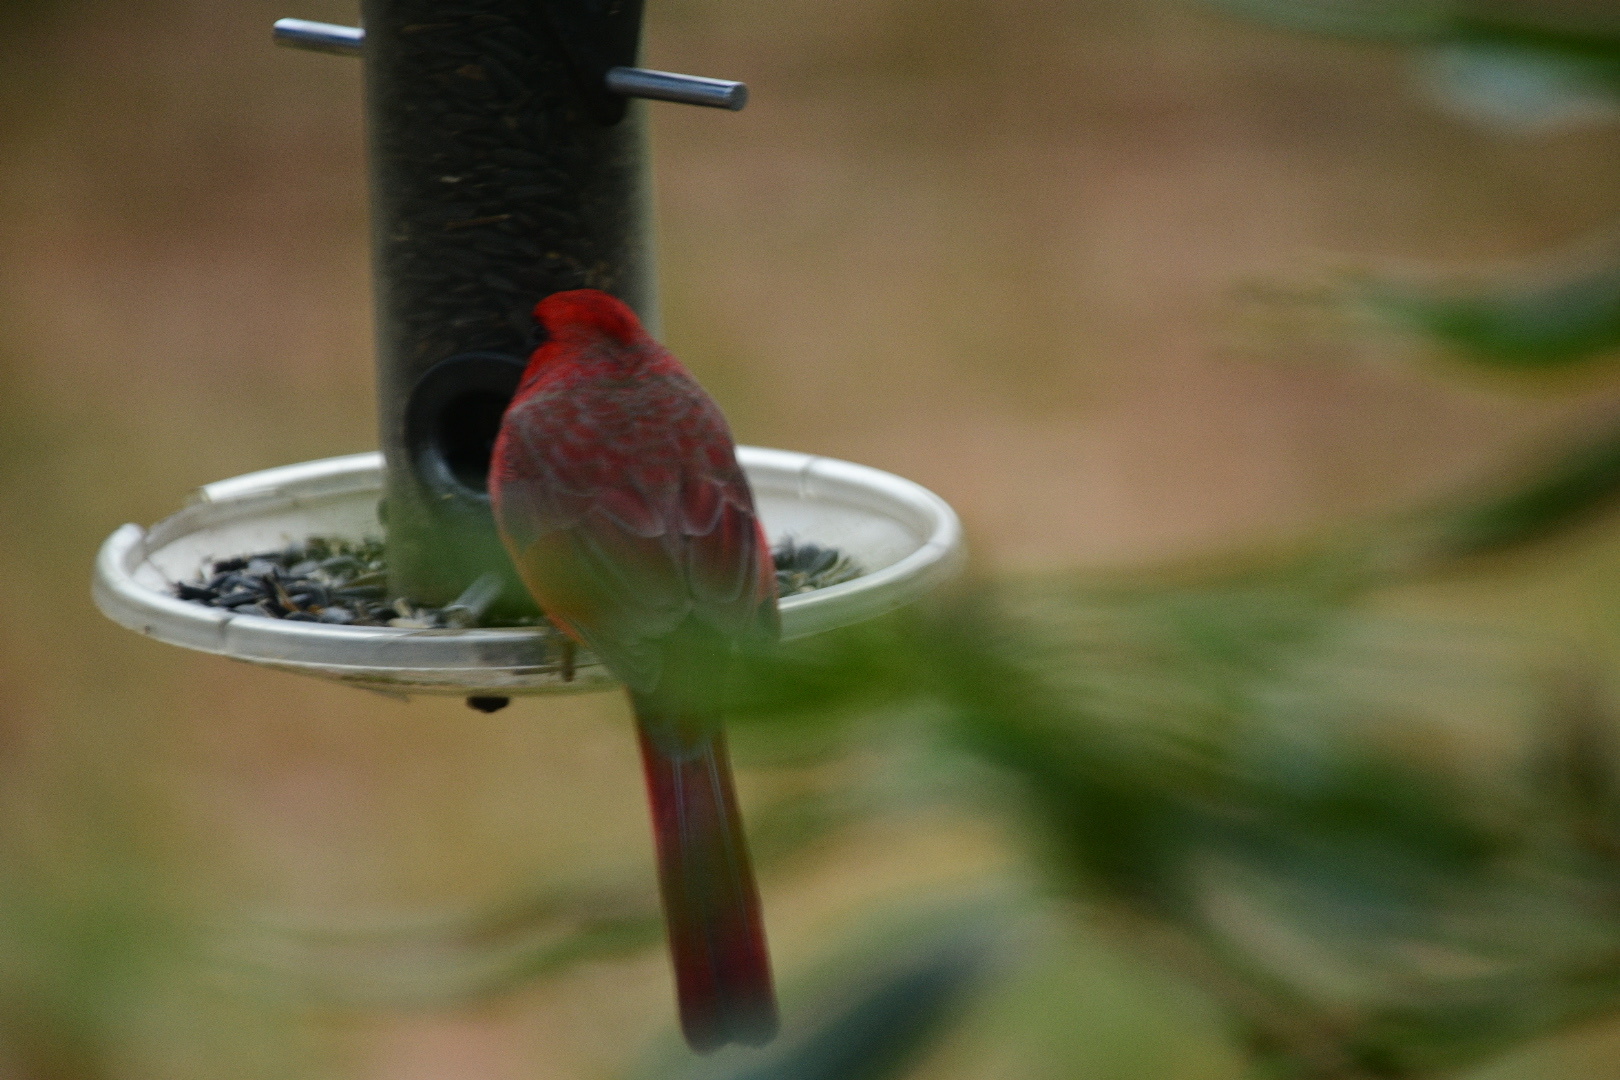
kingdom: Animalia
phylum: Chordata
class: Aves
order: Passeriformes
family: Cardinalidae
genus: Cardinalis
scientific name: Cardinalis cardinalis
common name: Northern cardinal
